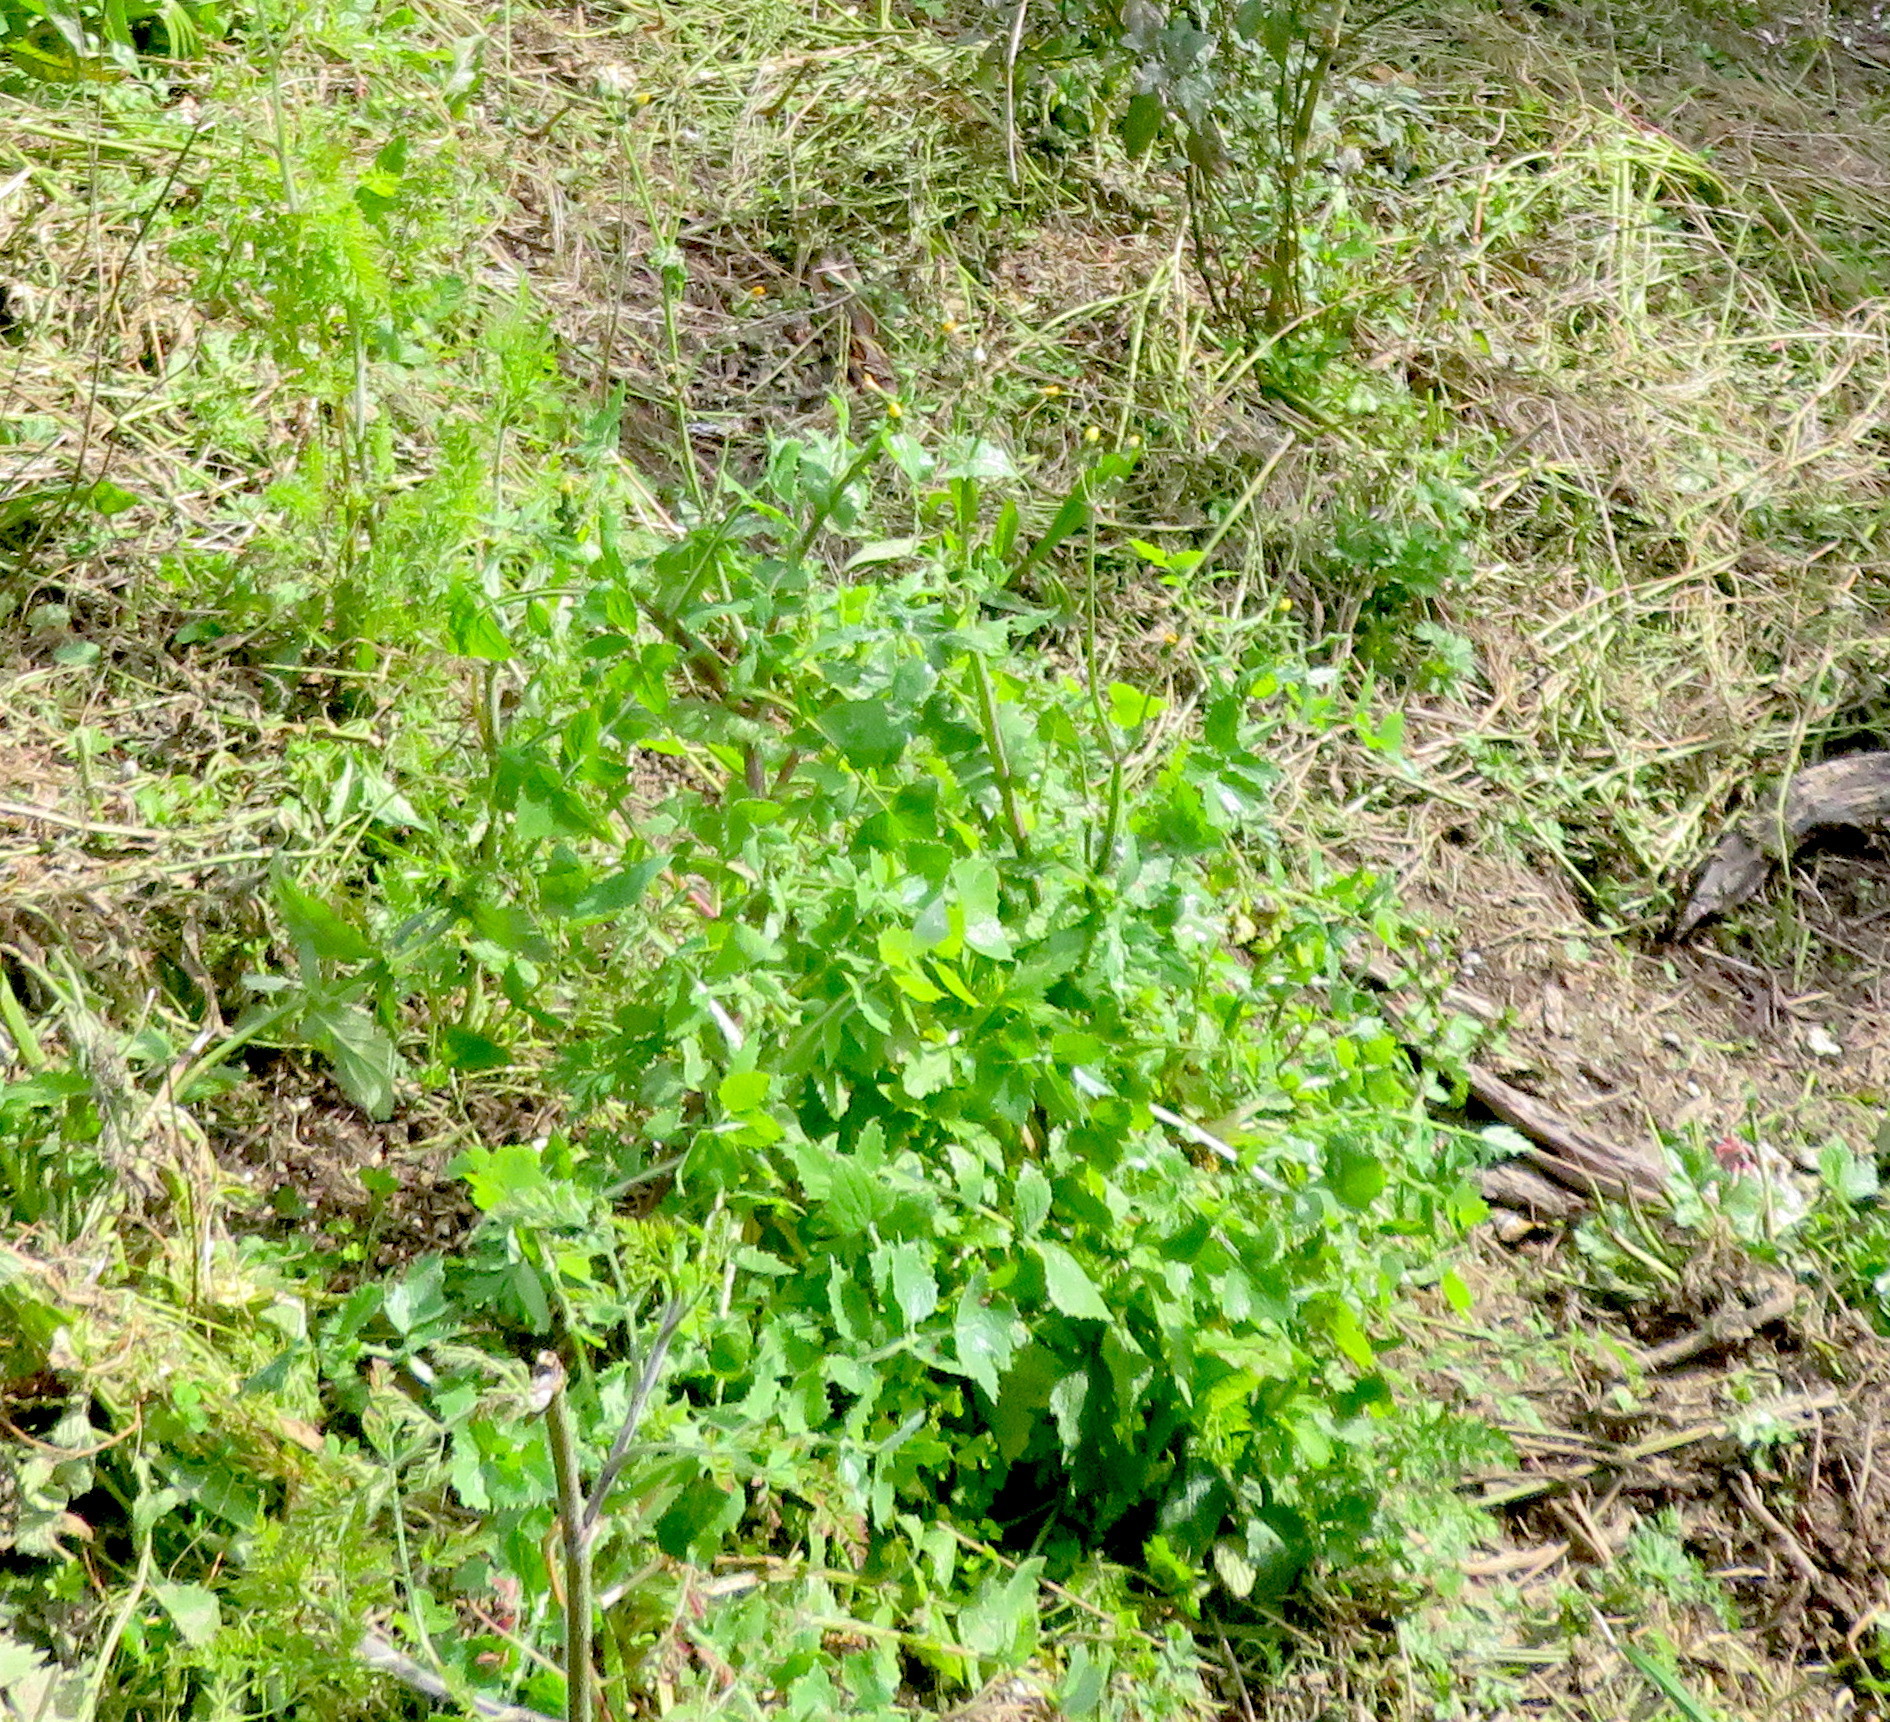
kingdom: Plantae
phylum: Tracheophyta
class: Magnoliopsida
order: Asterales
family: Asteraceae
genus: Sonchus
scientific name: Sonchus oleraceus
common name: Common sowthistle
